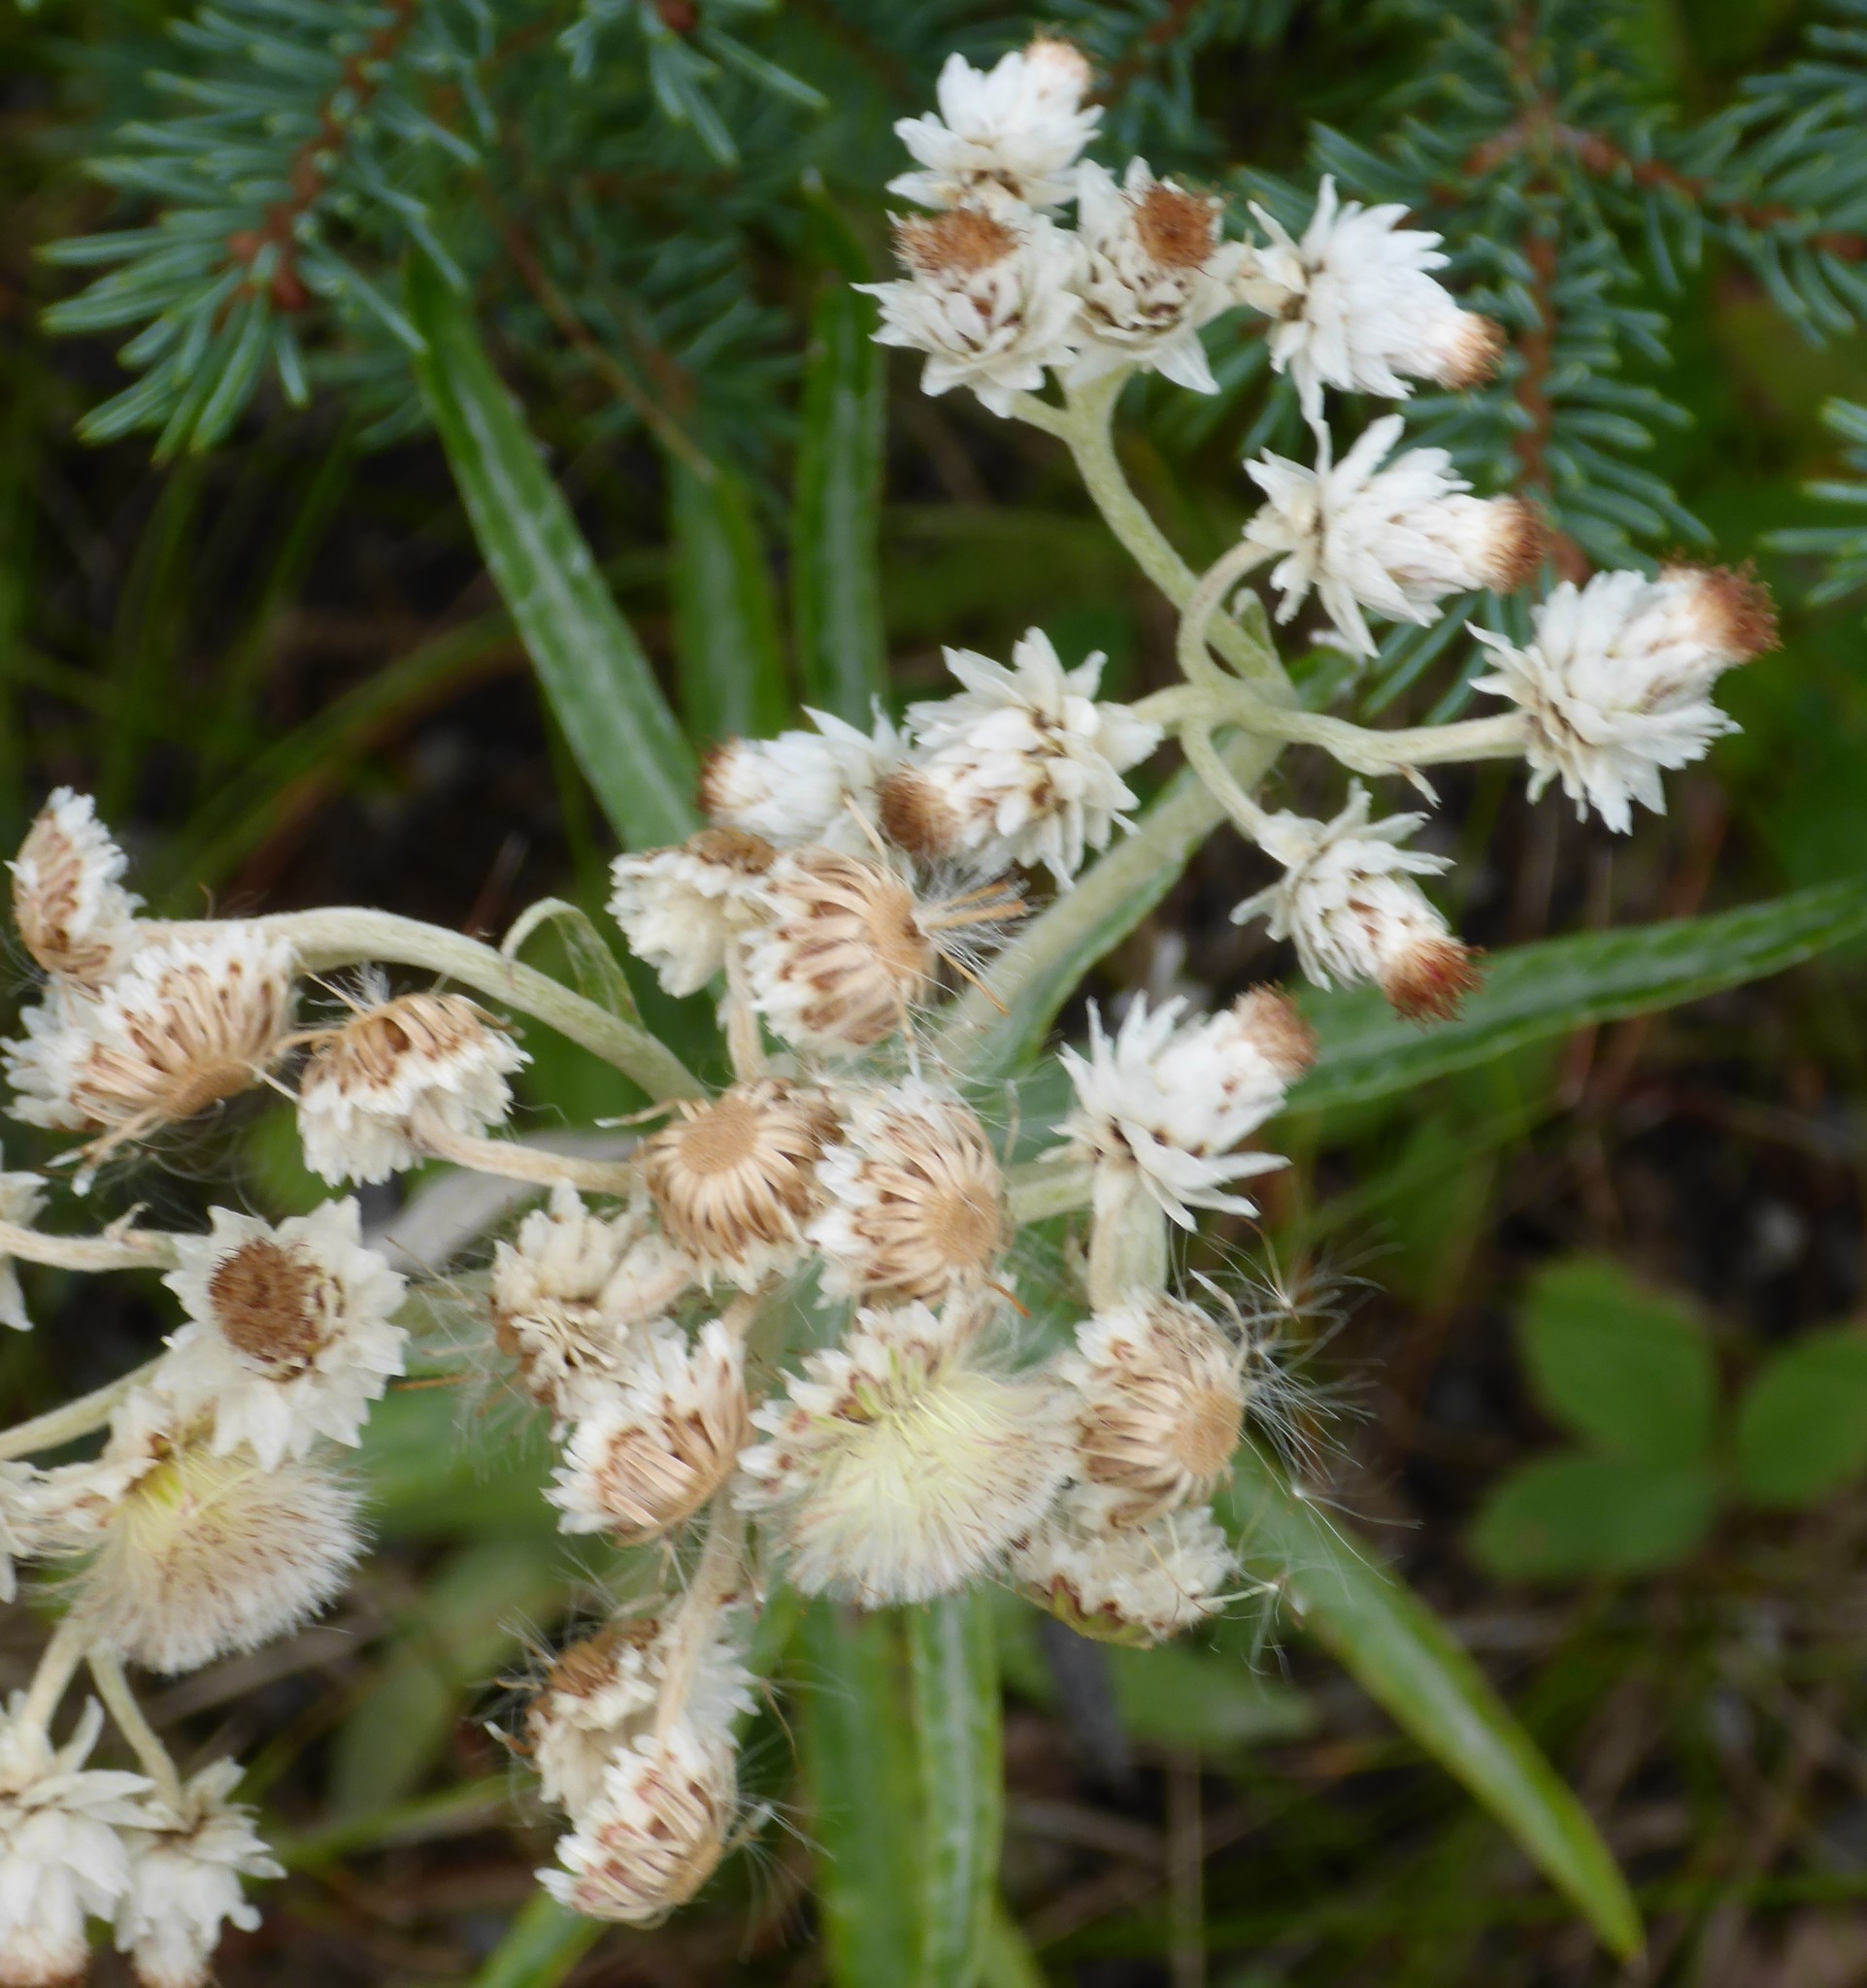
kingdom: Plantae
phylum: Tracheophyta
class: Magnoliopsida
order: Asterales
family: Asteraceae
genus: Anaphalis
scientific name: Anaphalis margaritacea
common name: Pearly everlasting
